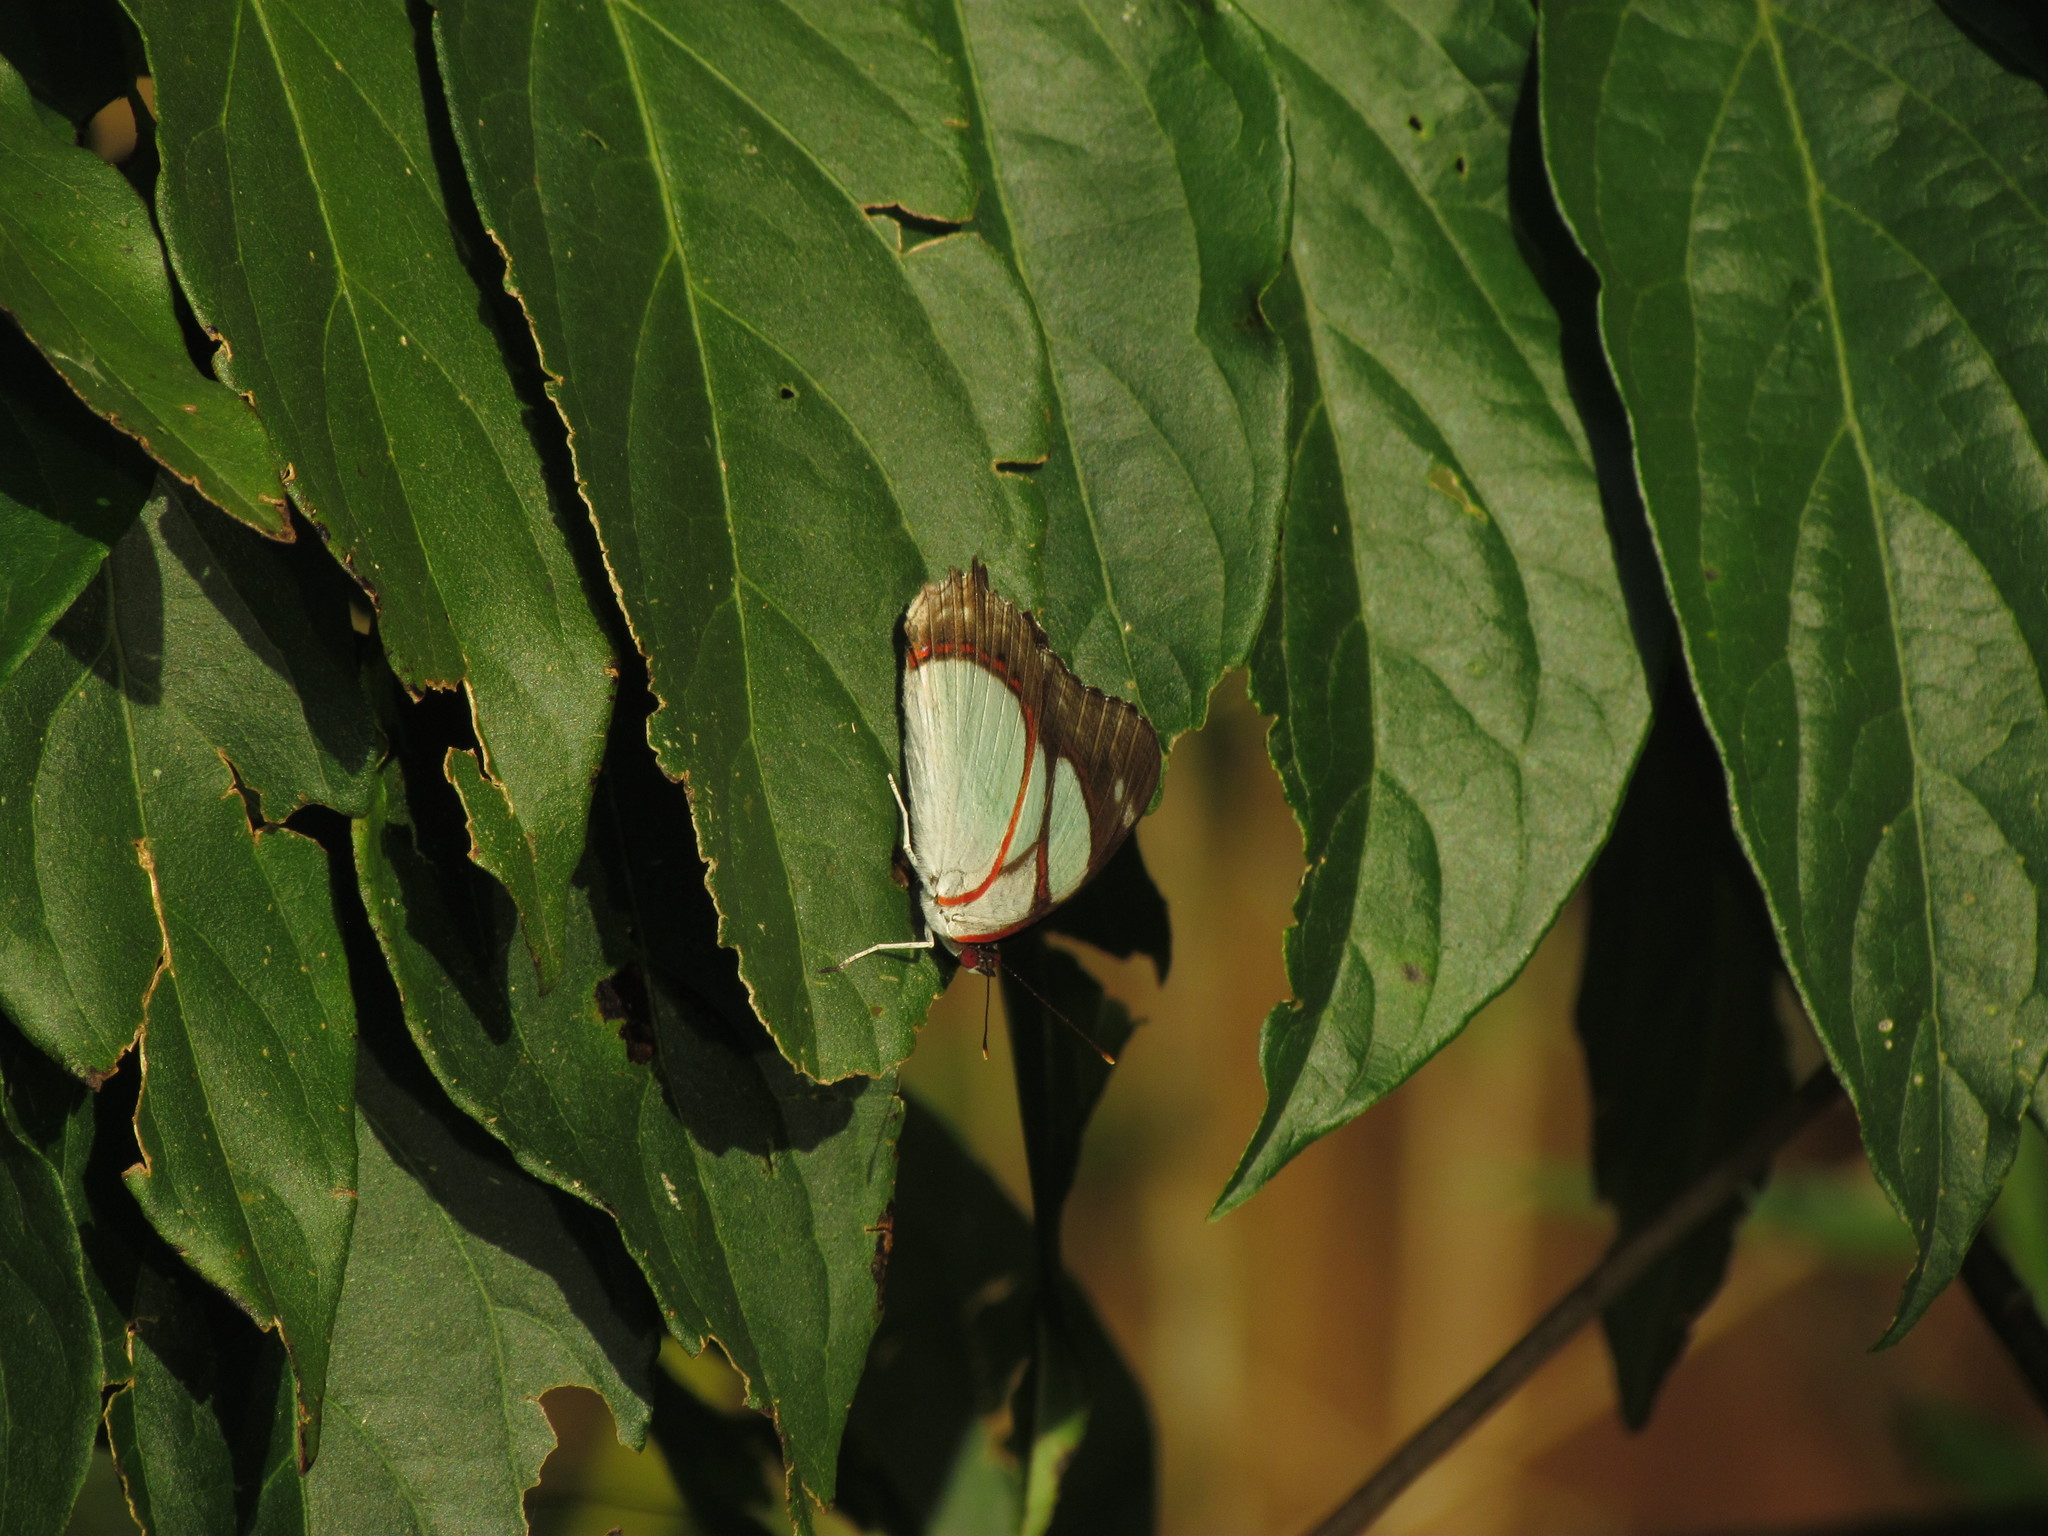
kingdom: Animalia
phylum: Arthropoda
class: Insecta
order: Lepidoptera
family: Nymphalidae
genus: Pyrrhogyra
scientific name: Pyrrhogyra neaerea
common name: Leading red-ring
